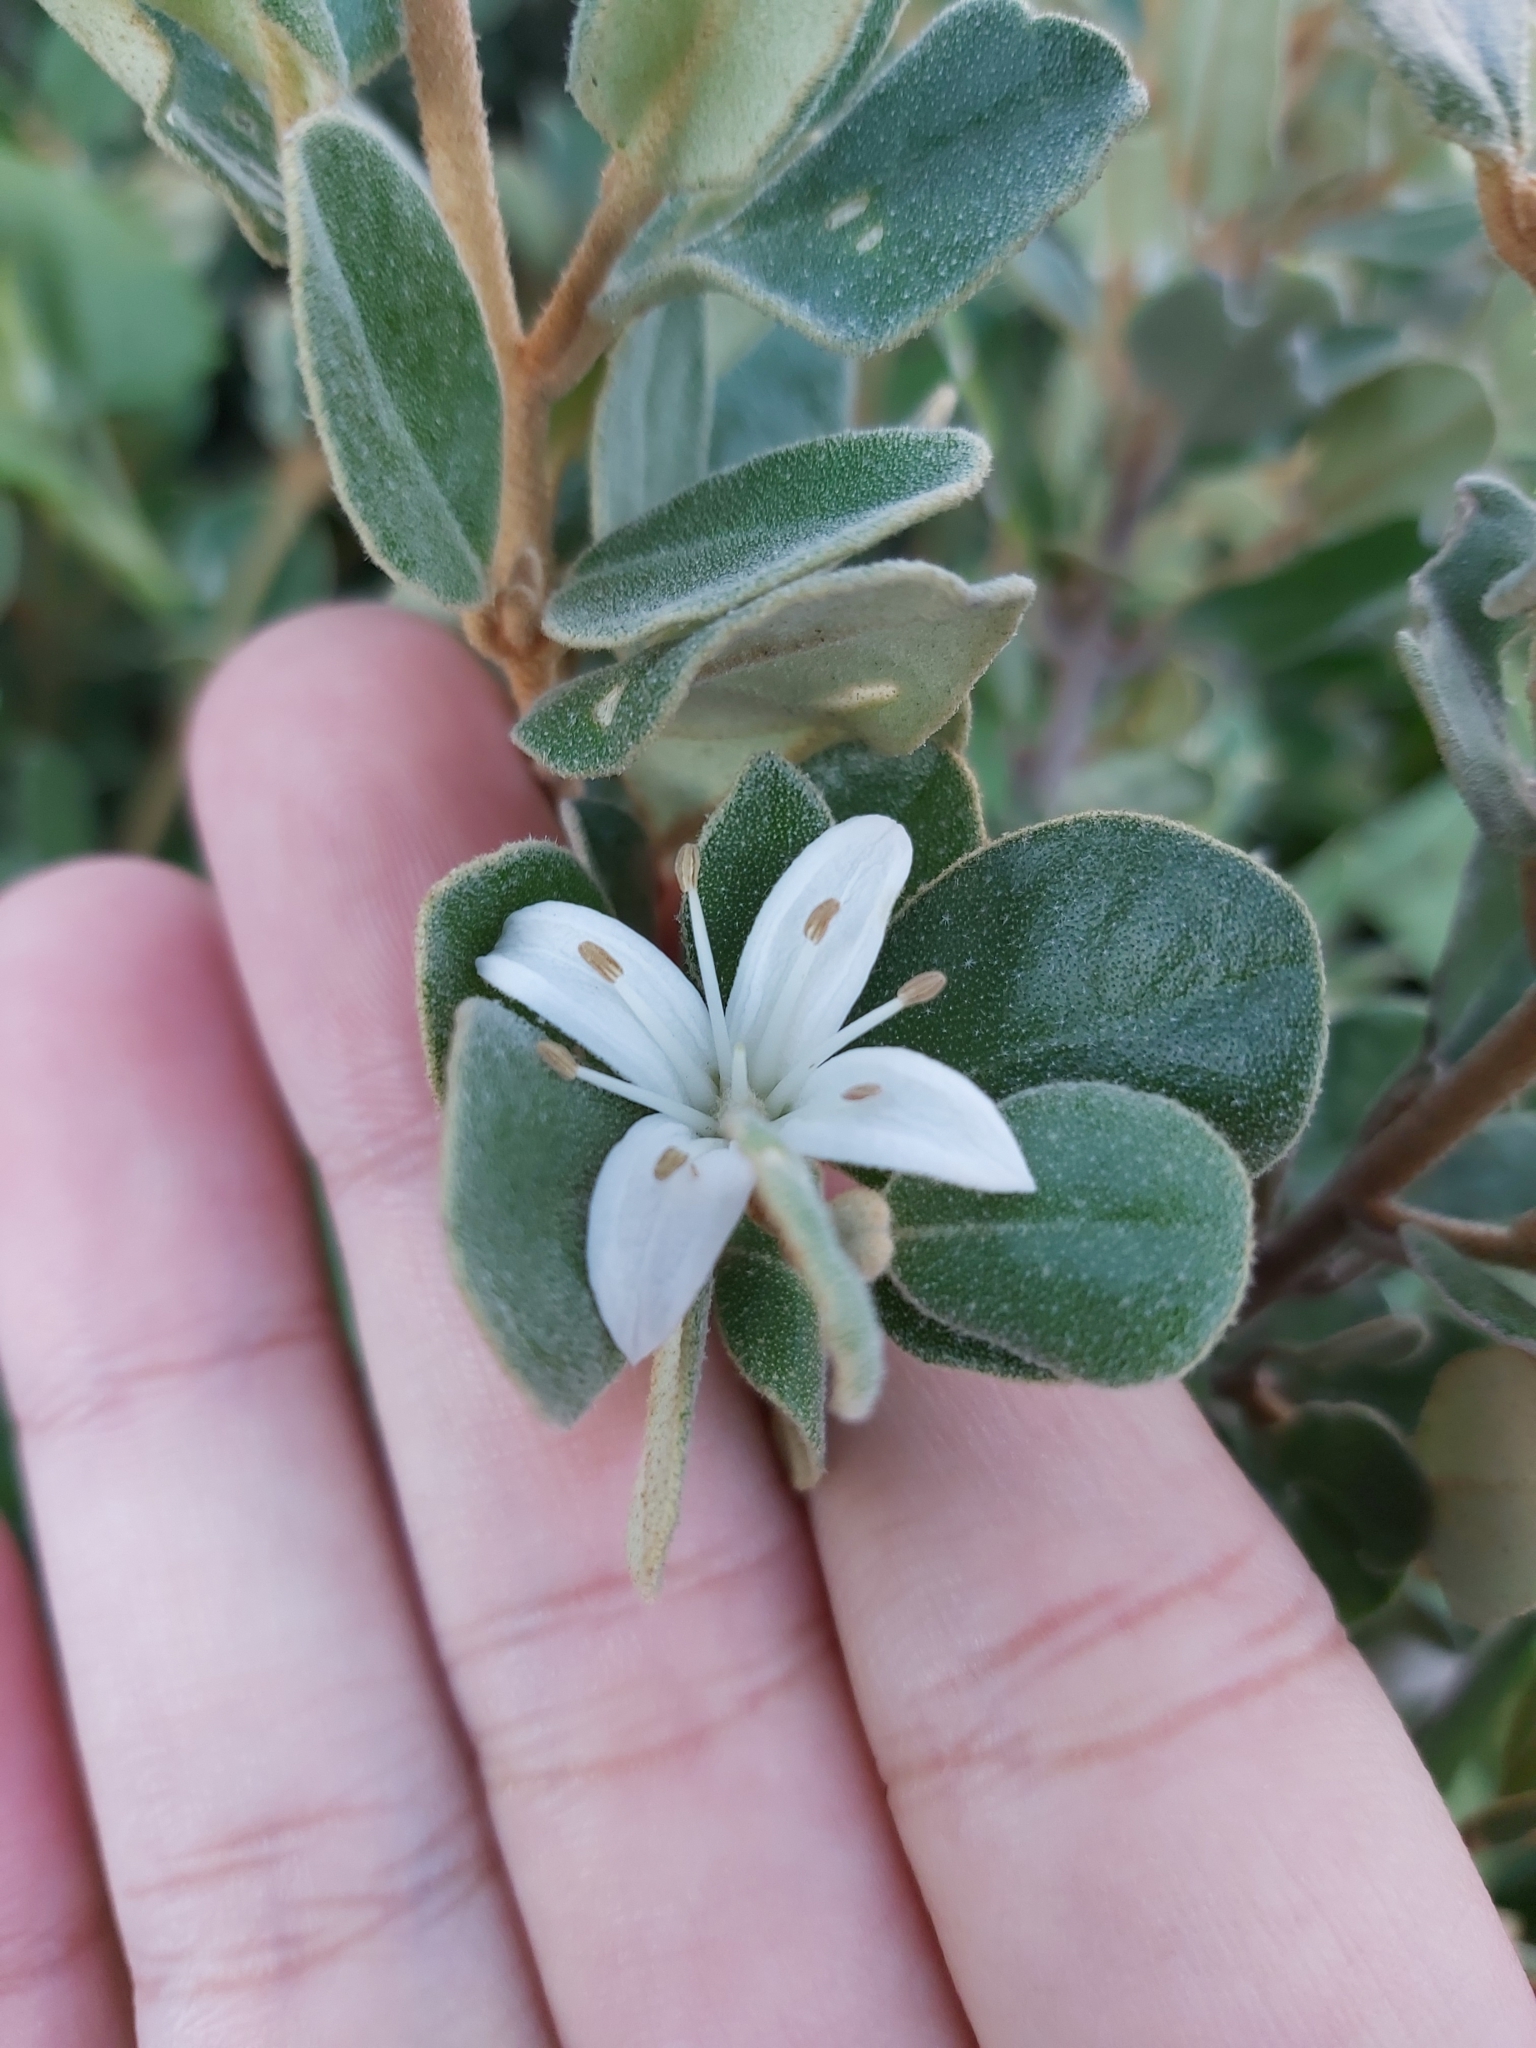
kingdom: Plantae
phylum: Tracheophyta
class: Magnoliopsida
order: Sapindales
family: Rutaceae
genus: Correa
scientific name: Correa alba
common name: White correa
